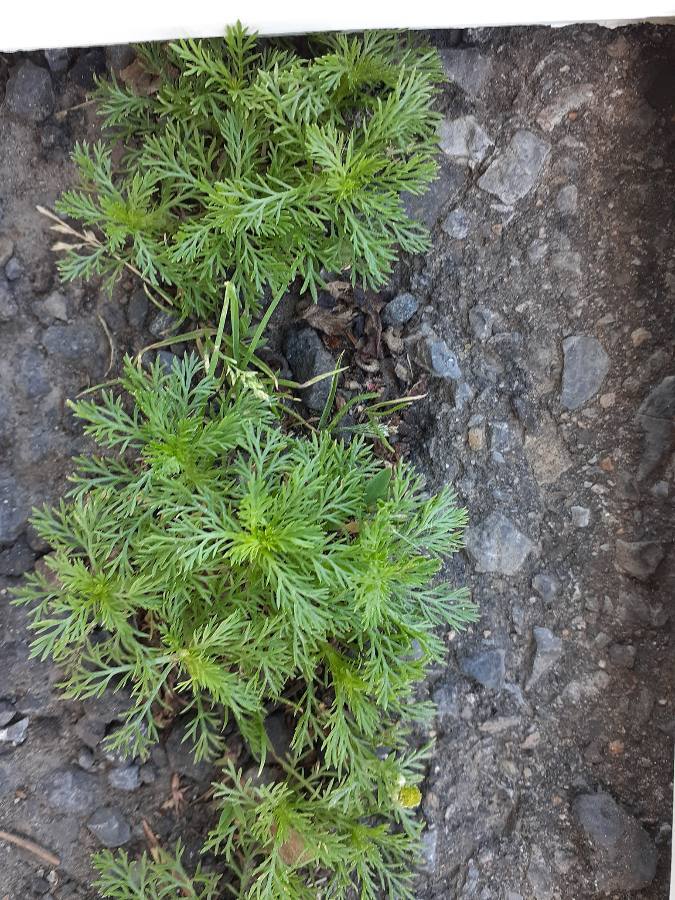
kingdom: Plantae
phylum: Tracheophyta
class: Magnoliopsida
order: Asterales
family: Asteraceae
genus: Matricaria
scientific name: Matricaria discoidea
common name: Disc mayweed
